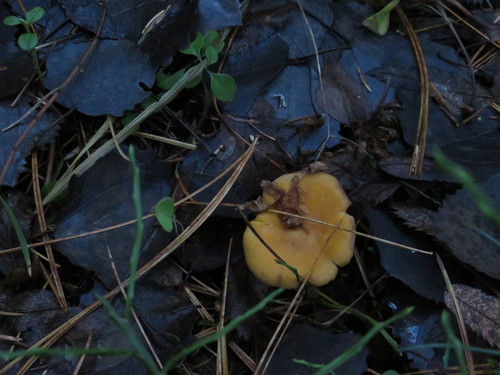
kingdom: Fungi
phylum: Basidiomycota
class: Agaricomycetes
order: Cantharellales
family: Hydnaceae
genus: Cantharellus
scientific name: Cantharellus cibarius
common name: Chanterelle
